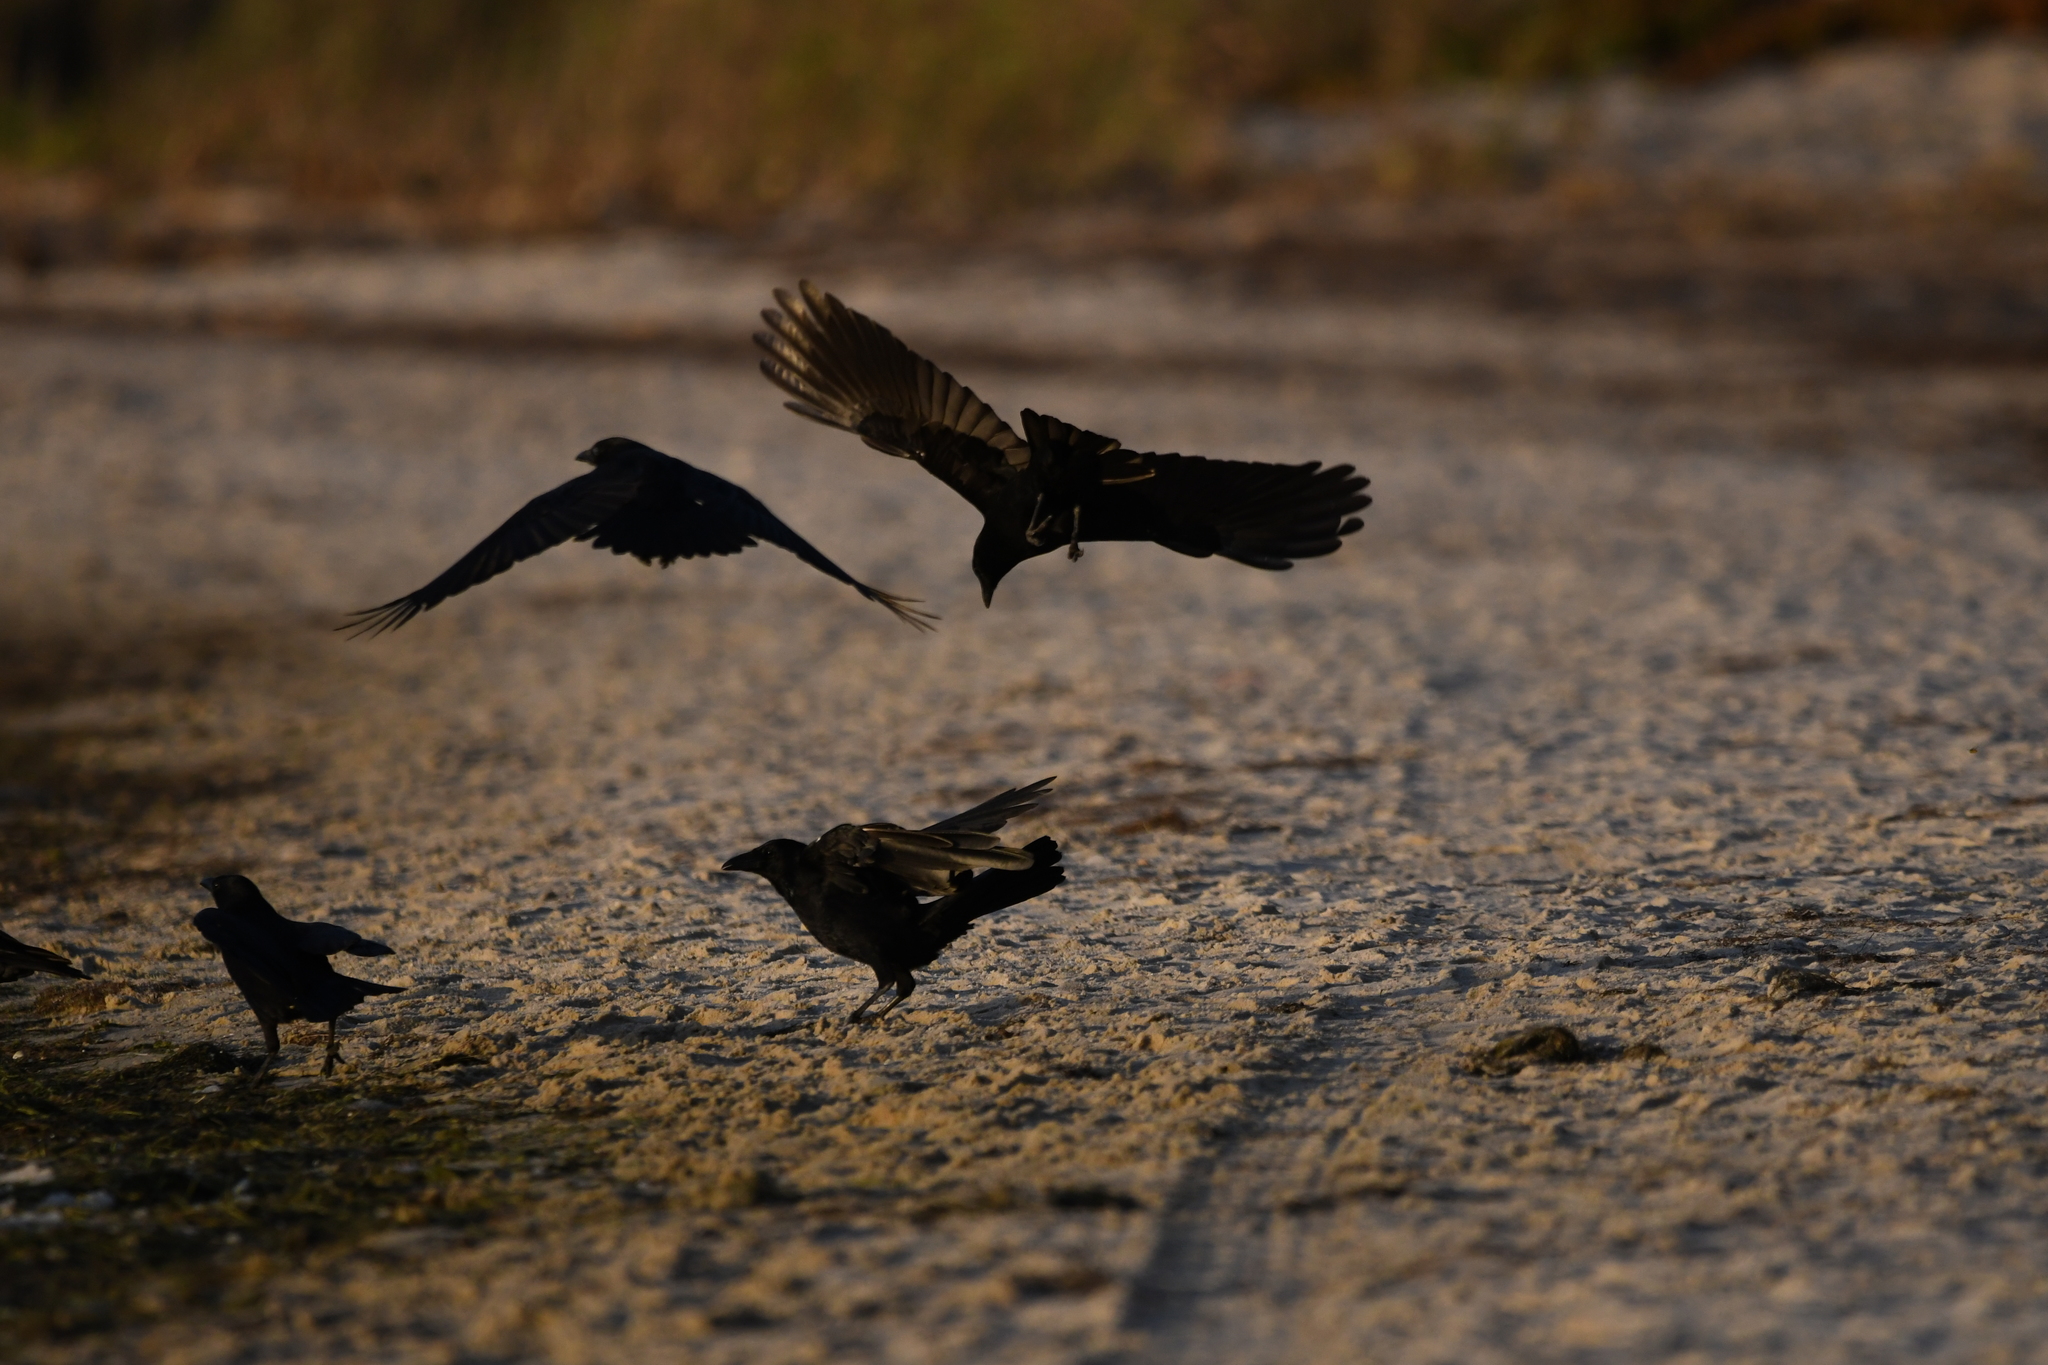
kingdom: Animalia
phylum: Chordata
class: Aves
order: Passeriformes
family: Corvidae
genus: Corvus
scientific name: Corvus corone
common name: Carrion crow
